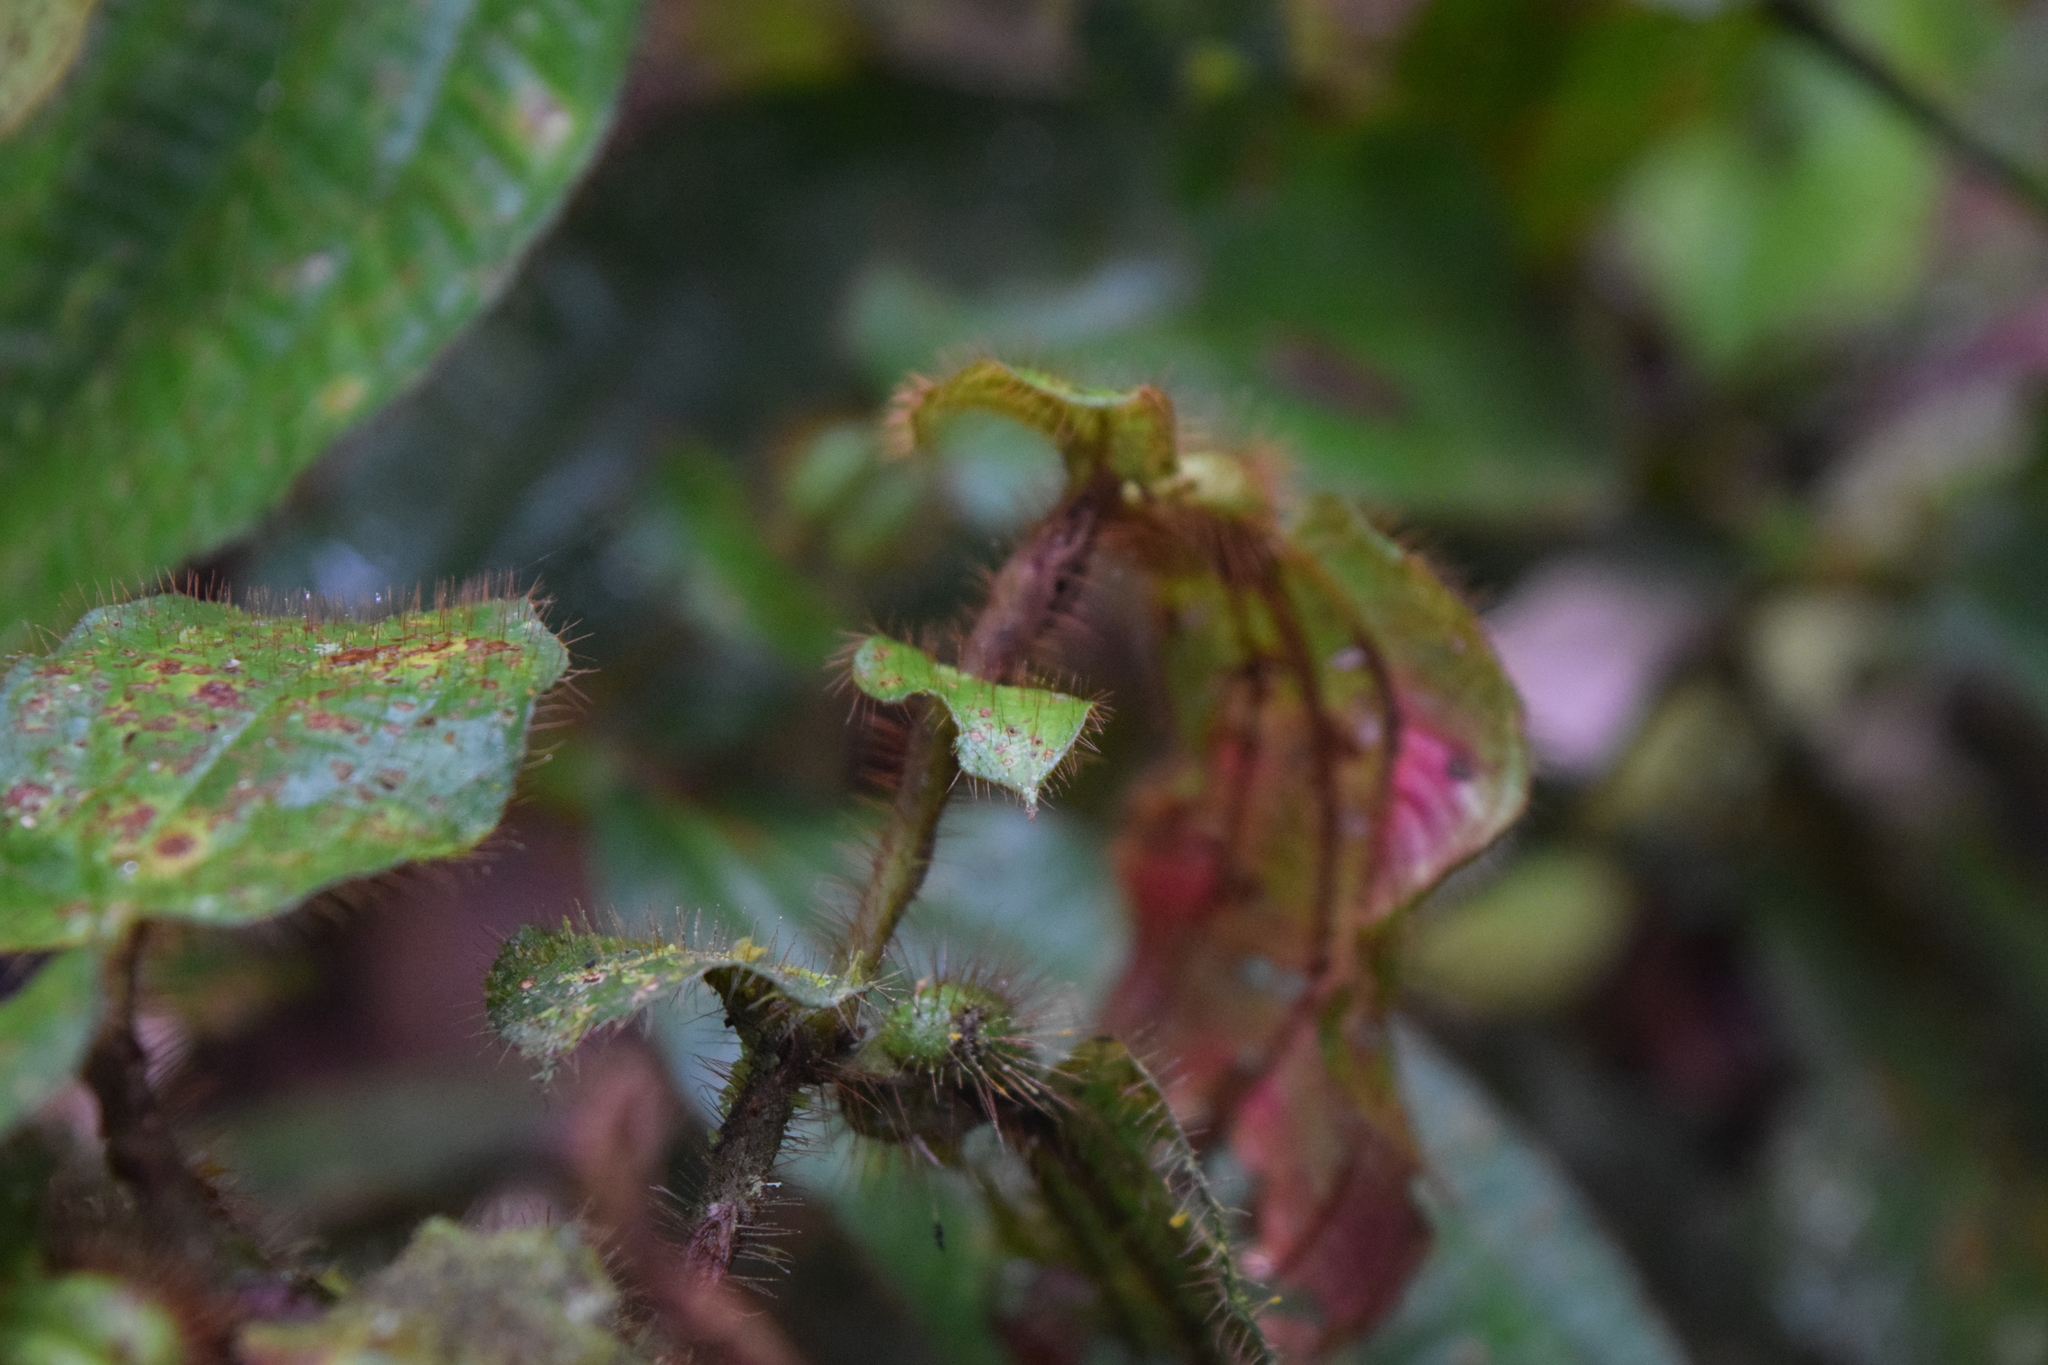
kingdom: Plantae
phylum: Tracheophyta
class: Magnoliopsida
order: Myrtales
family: Melastomataceae
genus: Miconia
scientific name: Miconia richardsprucei
